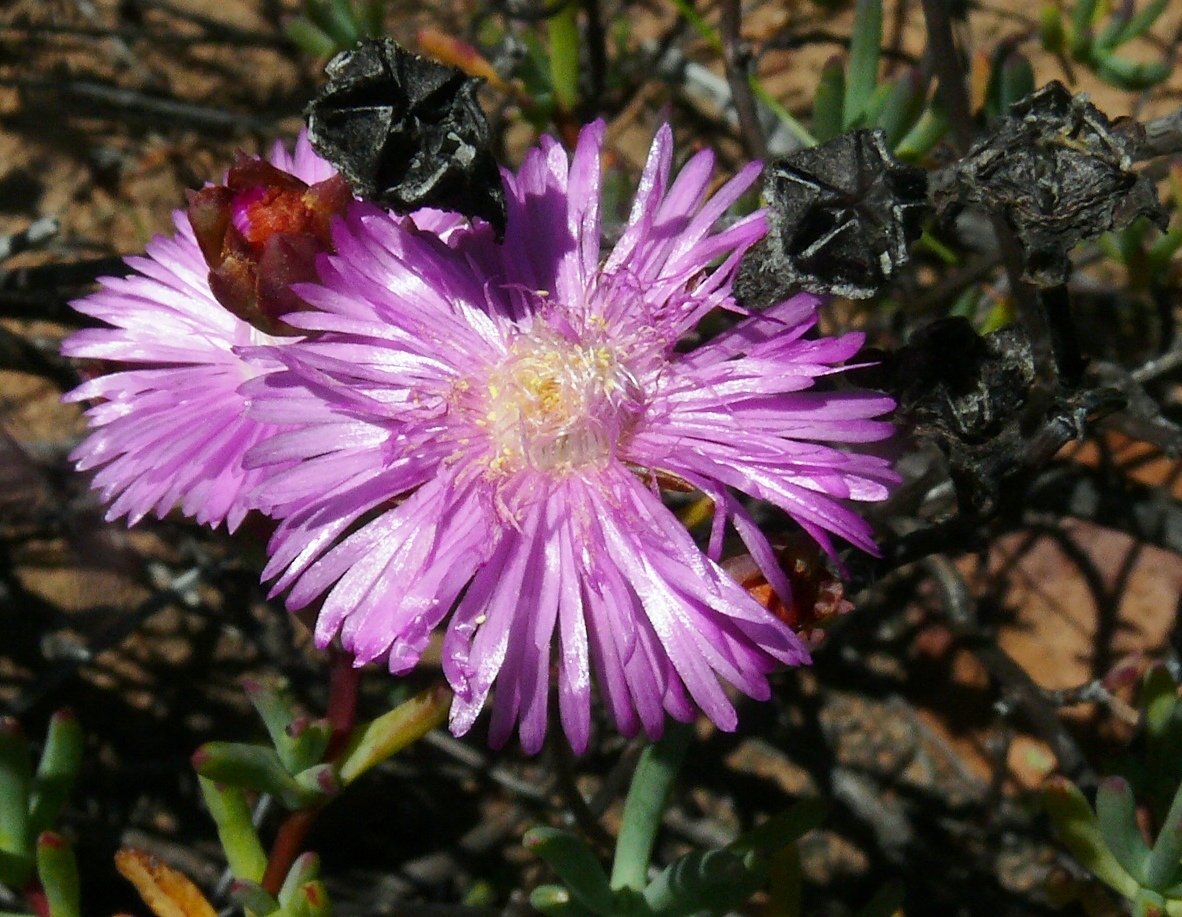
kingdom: Plantae
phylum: Tracheophyta
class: Magnoliopsida
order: Caryophyllales
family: Aizoaceae
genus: Lampranthus
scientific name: Lampranthus leightoniae
